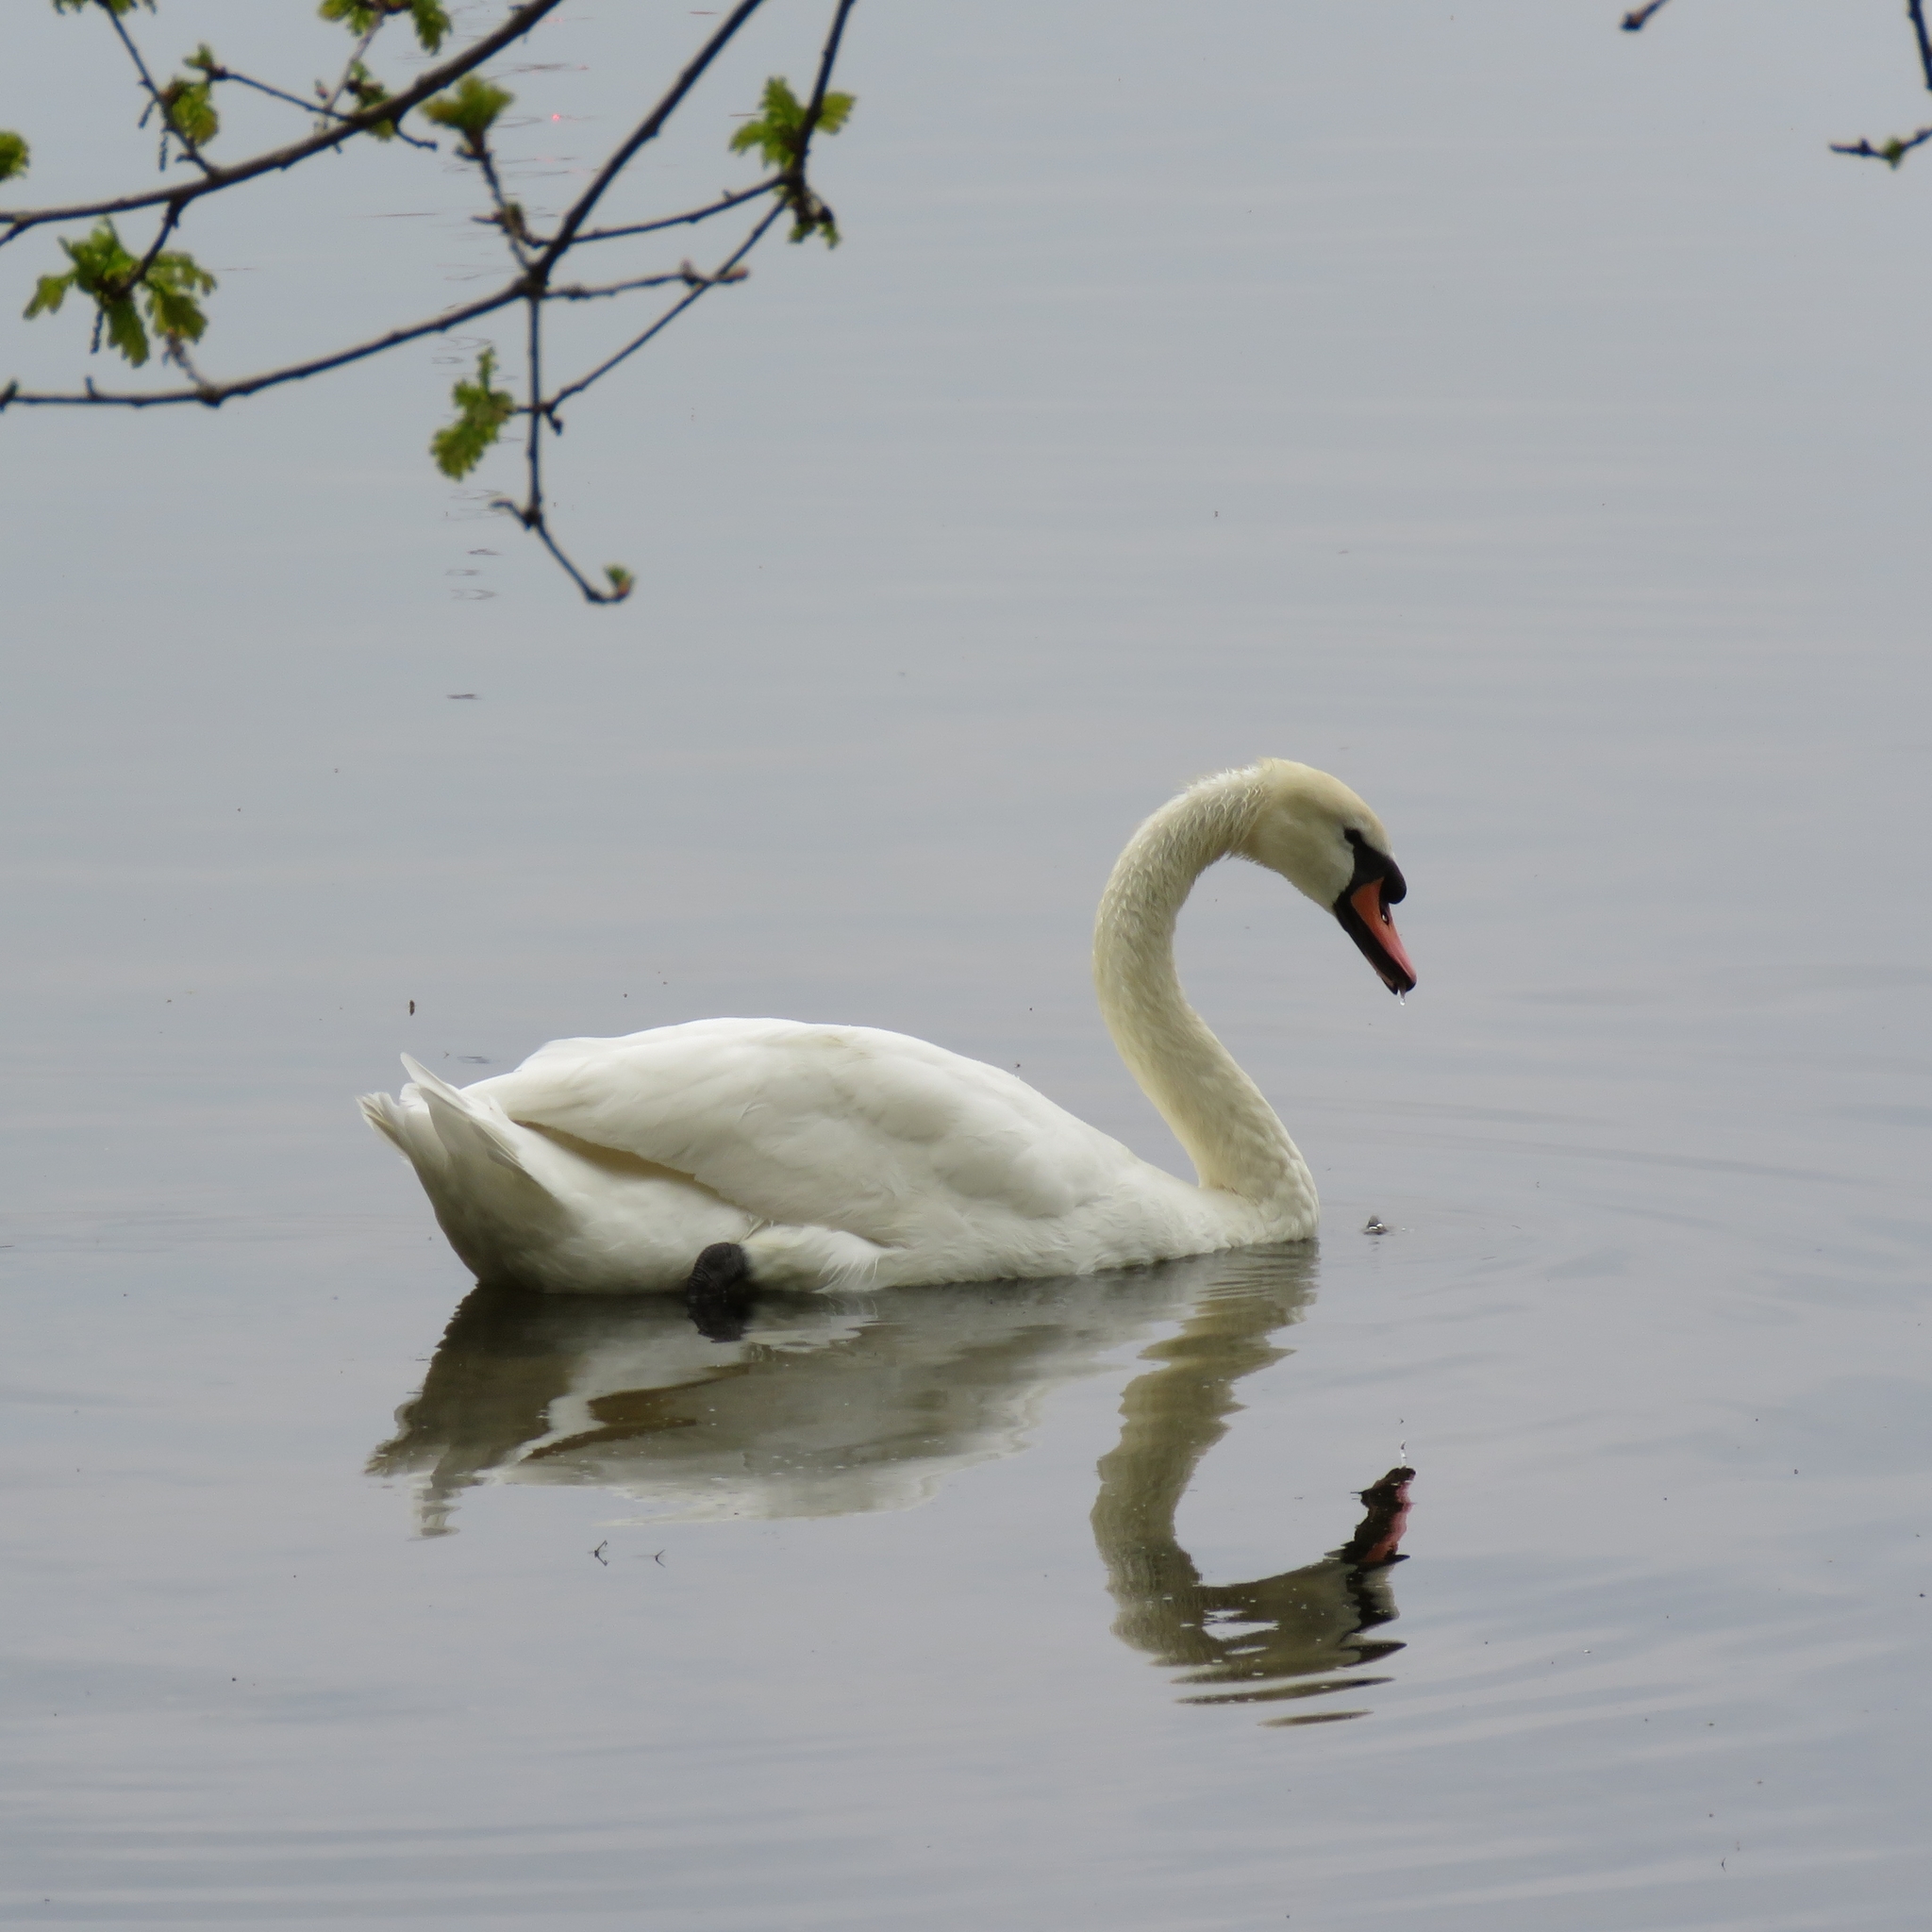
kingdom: Animalia
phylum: Chordata
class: Aves
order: Anseriformes
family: Anatidae
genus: Cygnus
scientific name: Cygnus olor
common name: Mute swan
